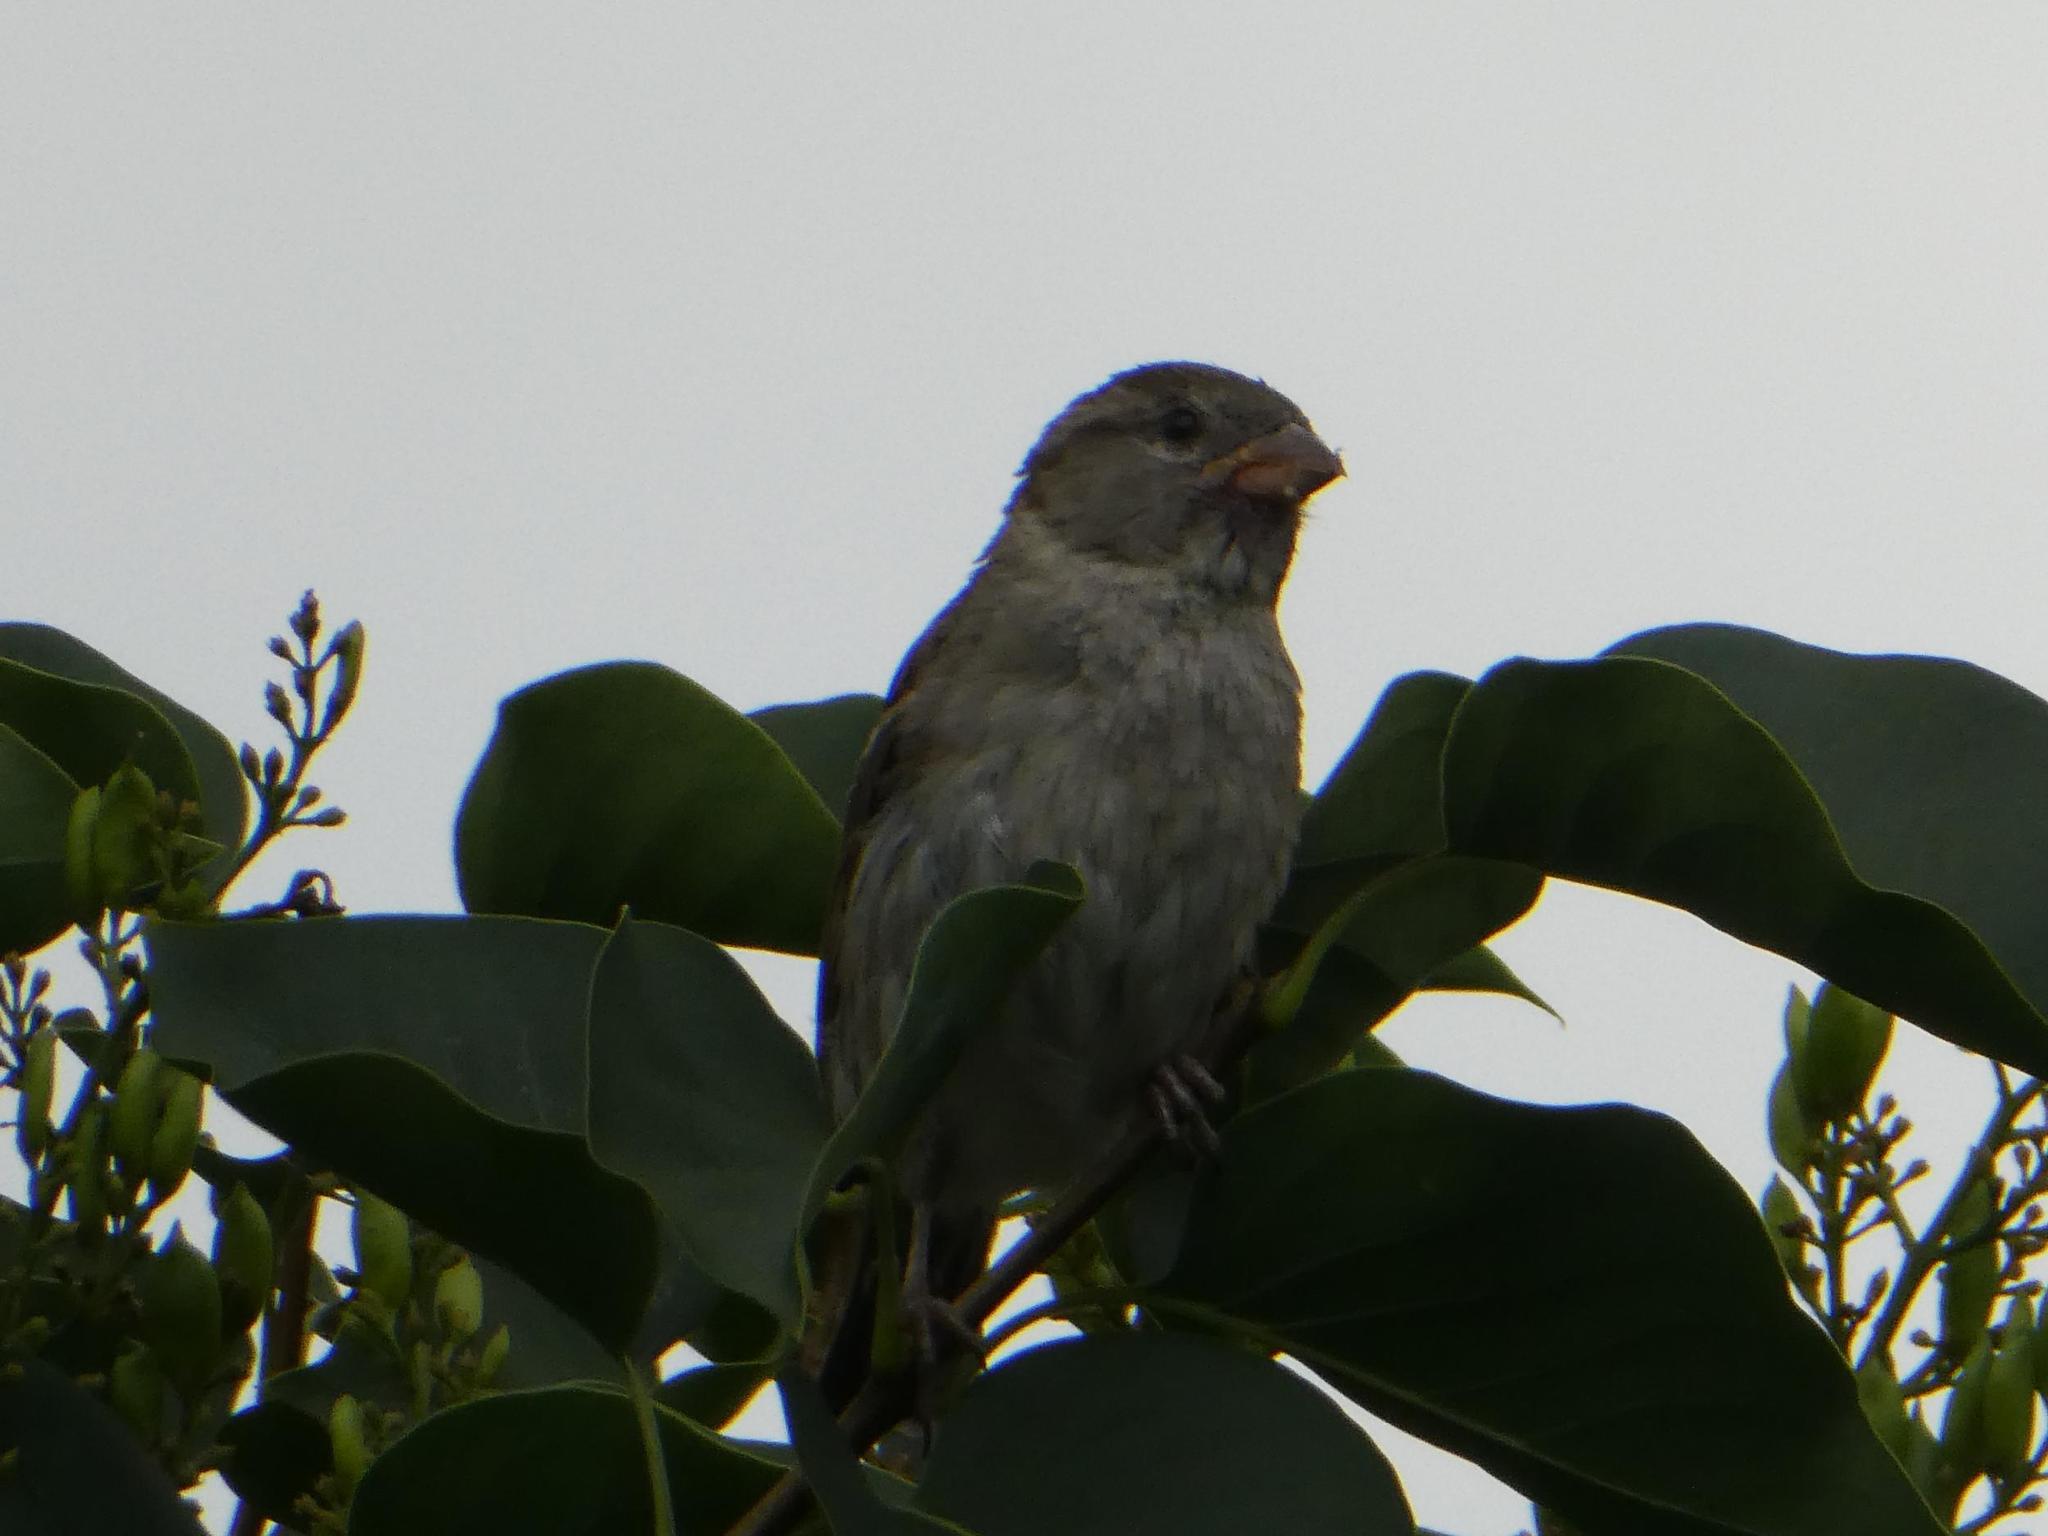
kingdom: Animalia
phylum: Chordata
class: Aves
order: Passeriformes
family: Passeridae
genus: Passer
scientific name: Passer domesticus
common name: House sparrow
